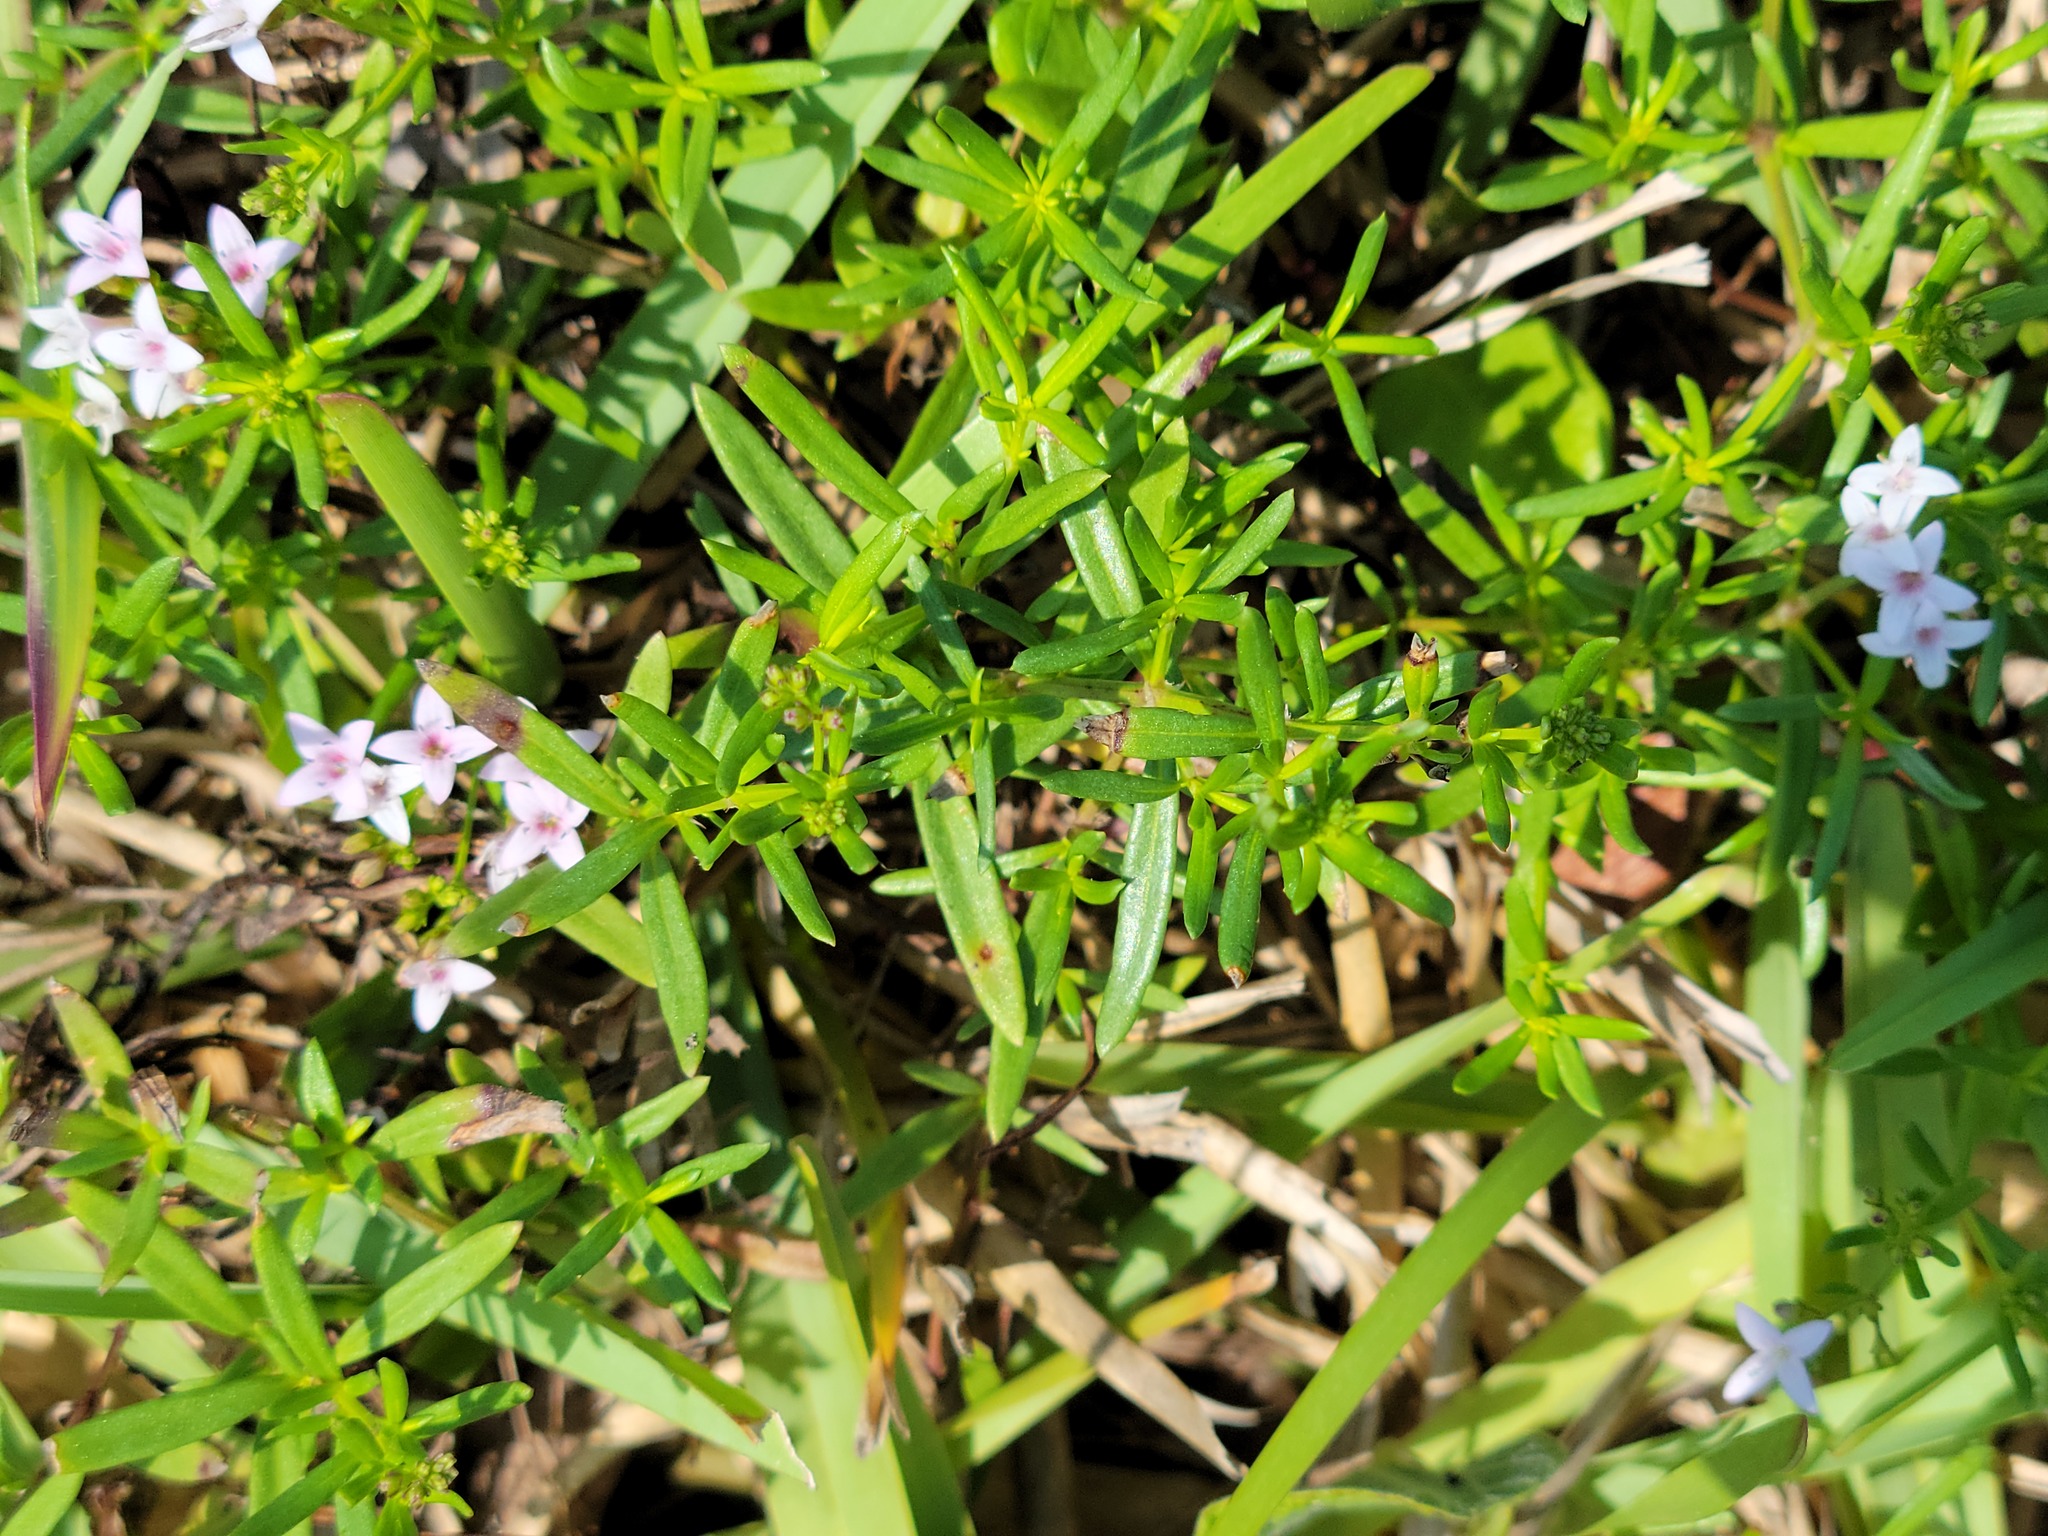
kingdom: Plantae
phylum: Tracheophyta
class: Magnoliopsida
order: Gentianales
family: Rubiaceae
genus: Stenaria
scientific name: Stenaria nigricans
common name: Diamondflowers
